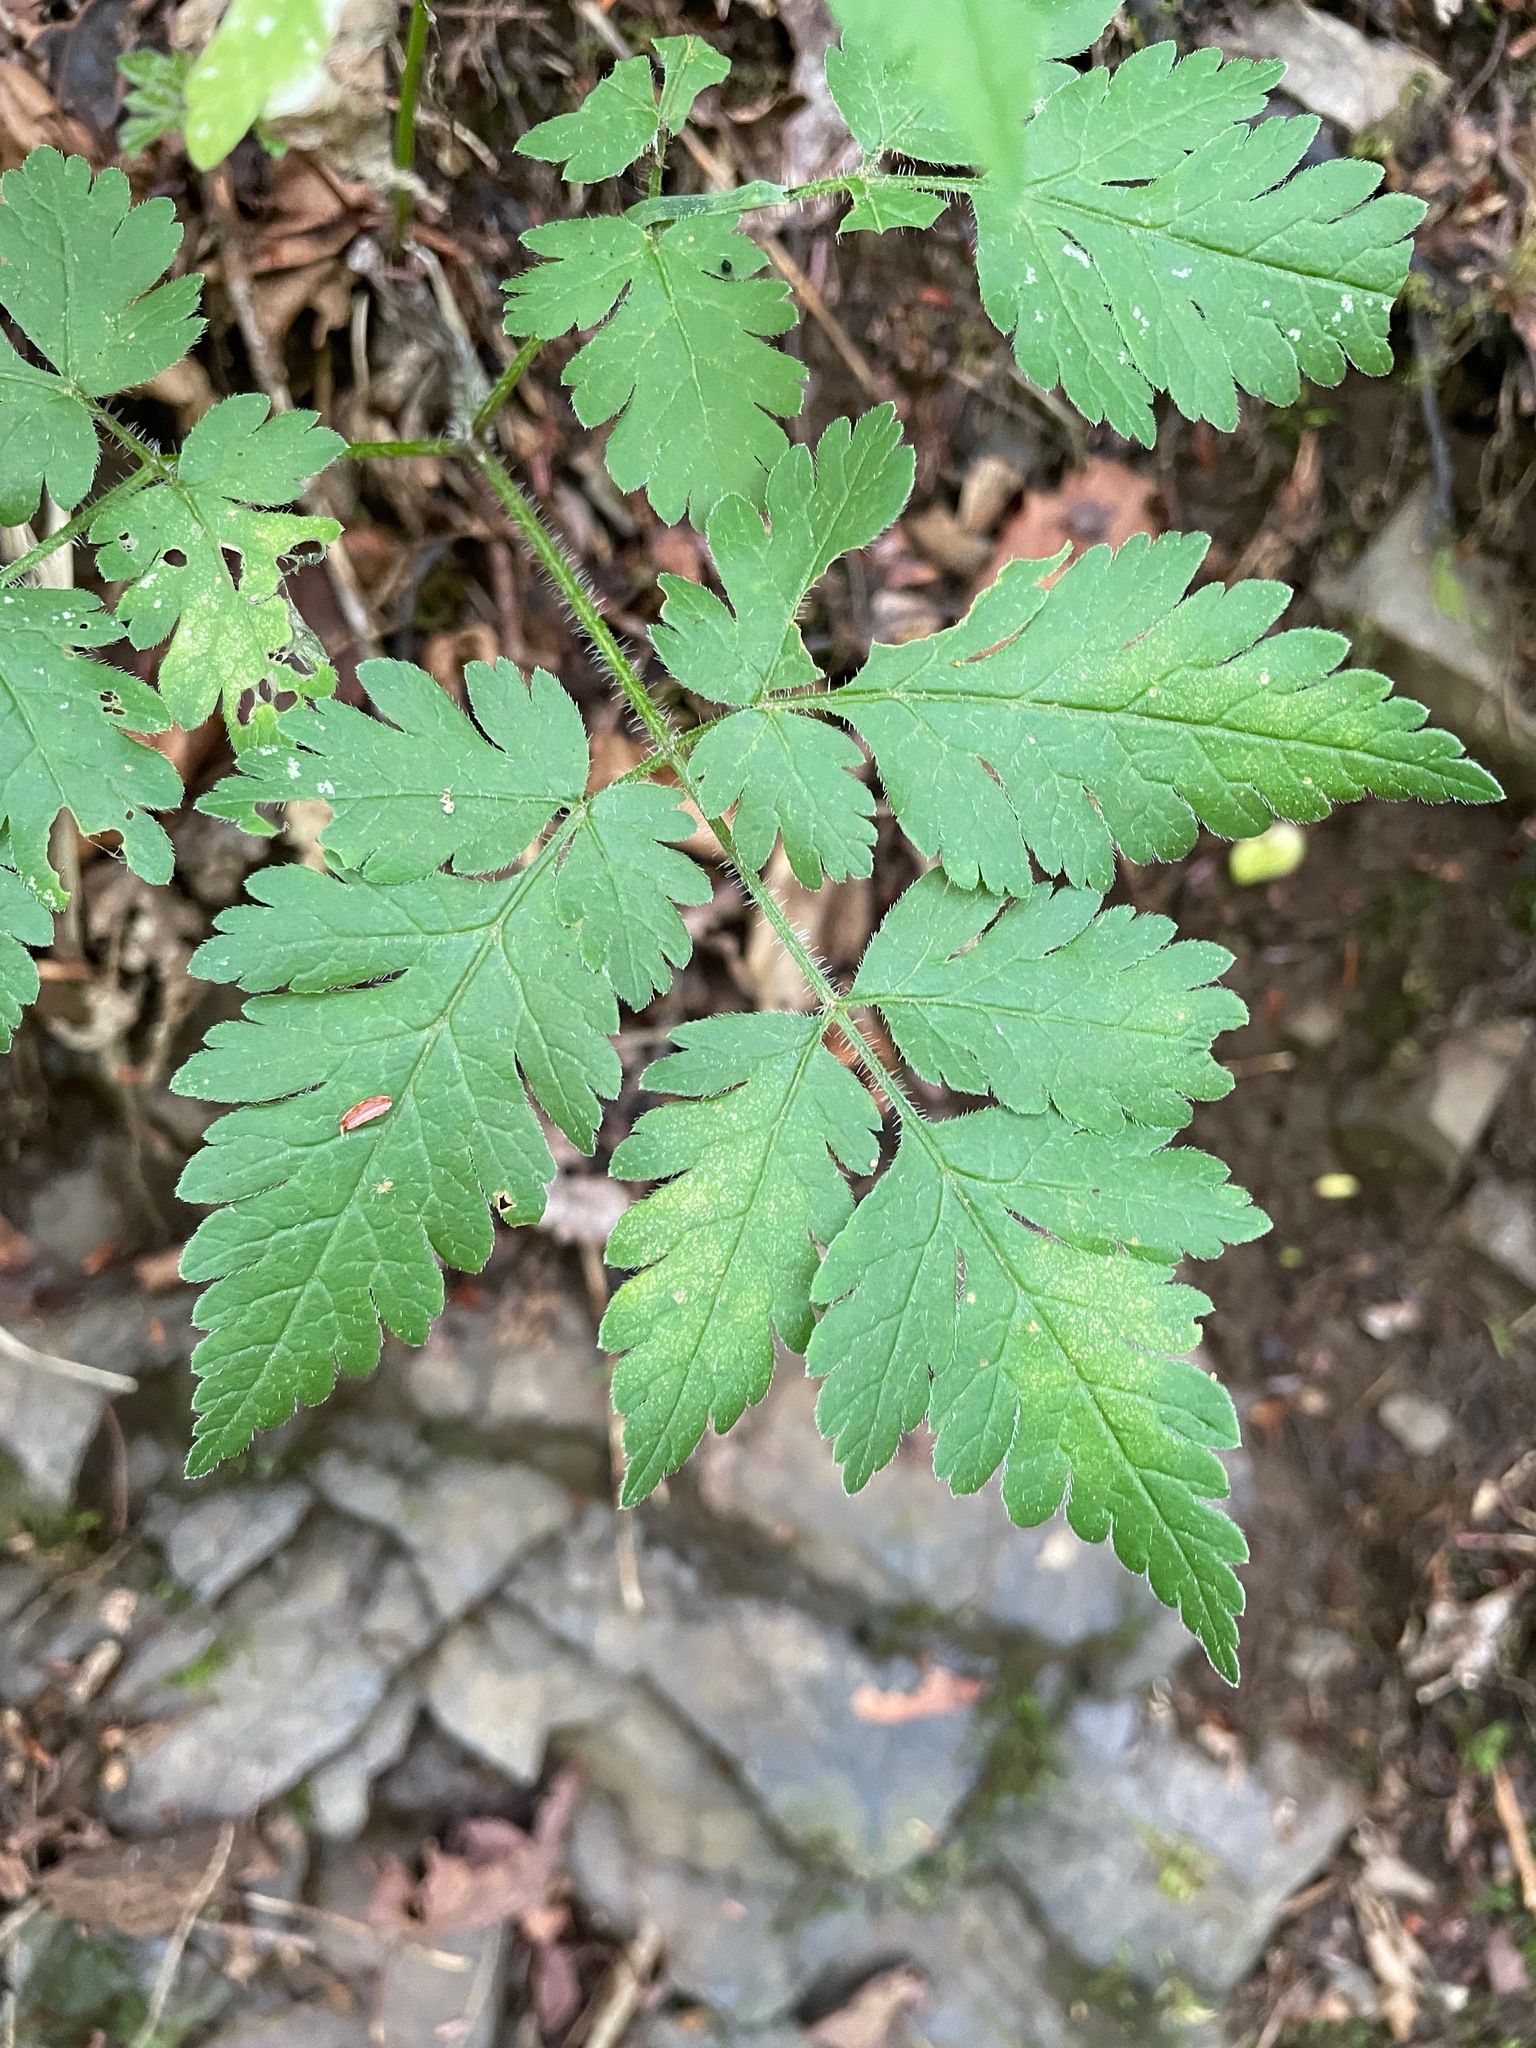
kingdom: Plantae
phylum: Tracheophyta
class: Magnoliopsida
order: Apiales
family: Apiaceae
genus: Osmorhiza
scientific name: Osmorhiza claytonii
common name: Hairy sweet cicely
